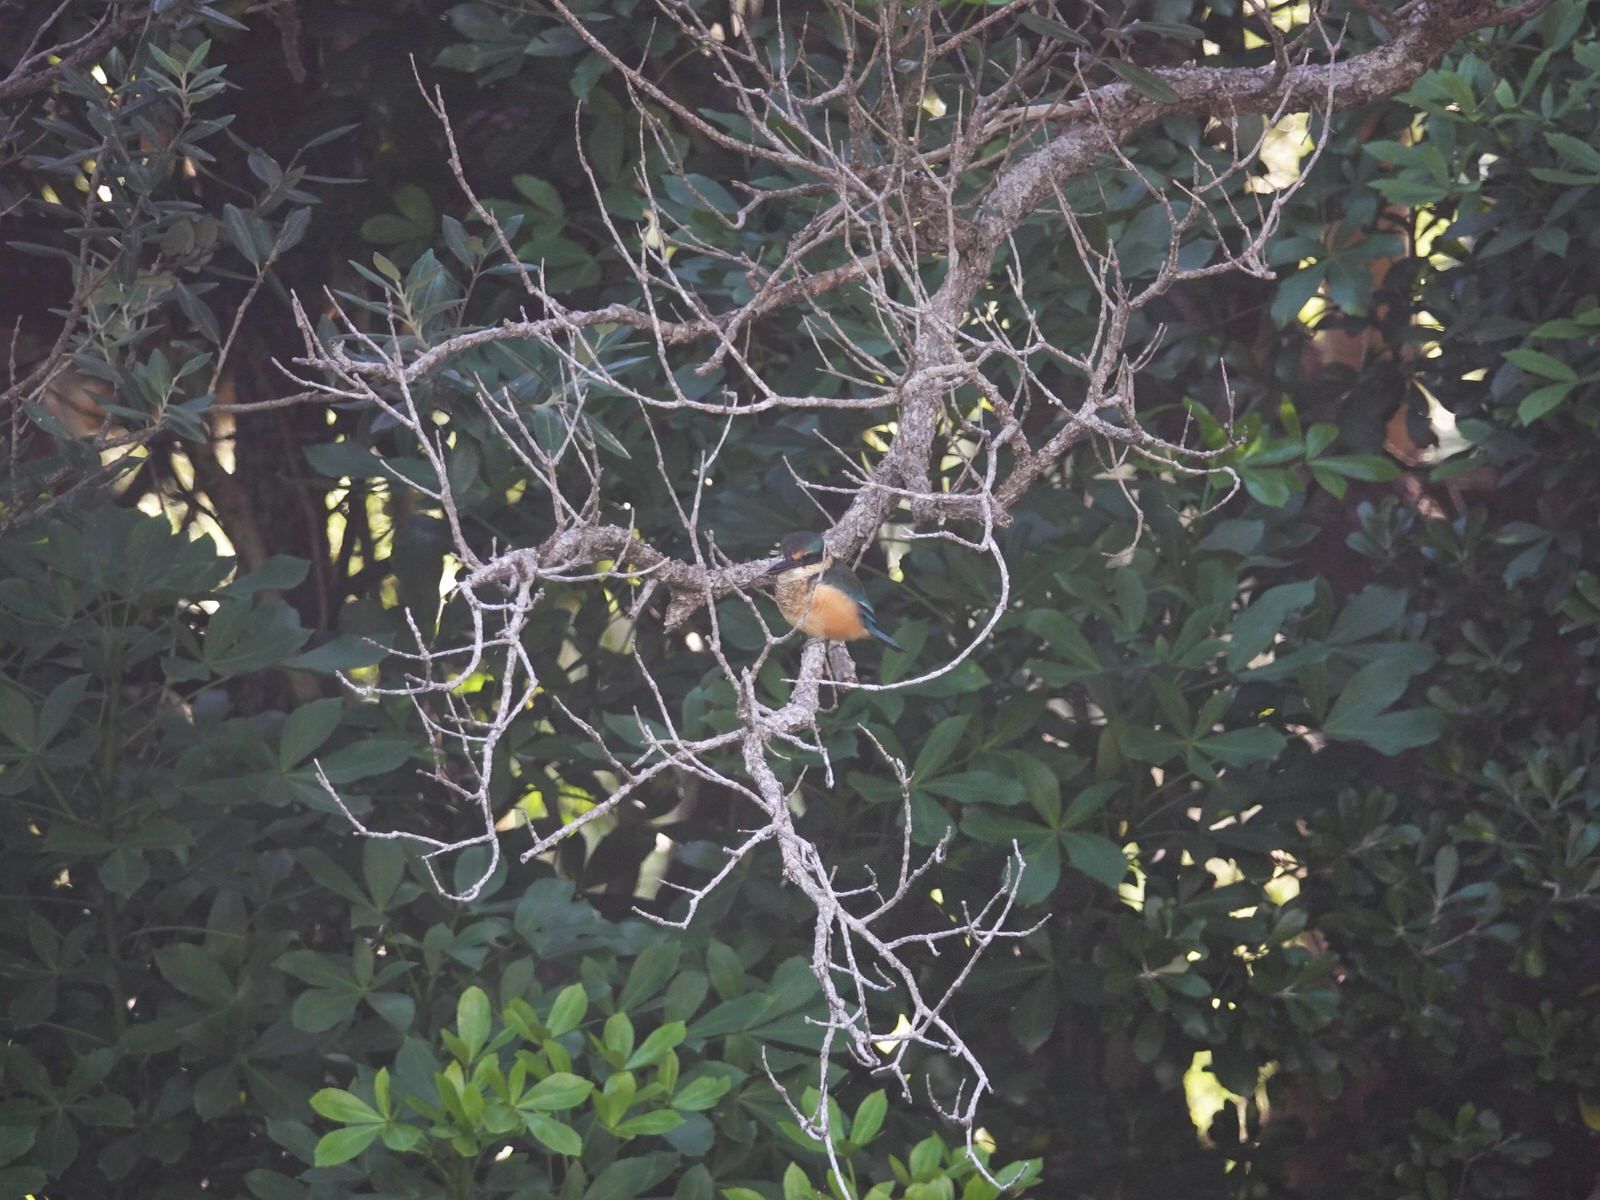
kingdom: Animalia
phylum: Chordata
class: Aves
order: Coraciiformes
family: Alcedinidae
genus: Todiramphus
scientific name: Todiramphus sanctus
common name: Sacred kingfisher
